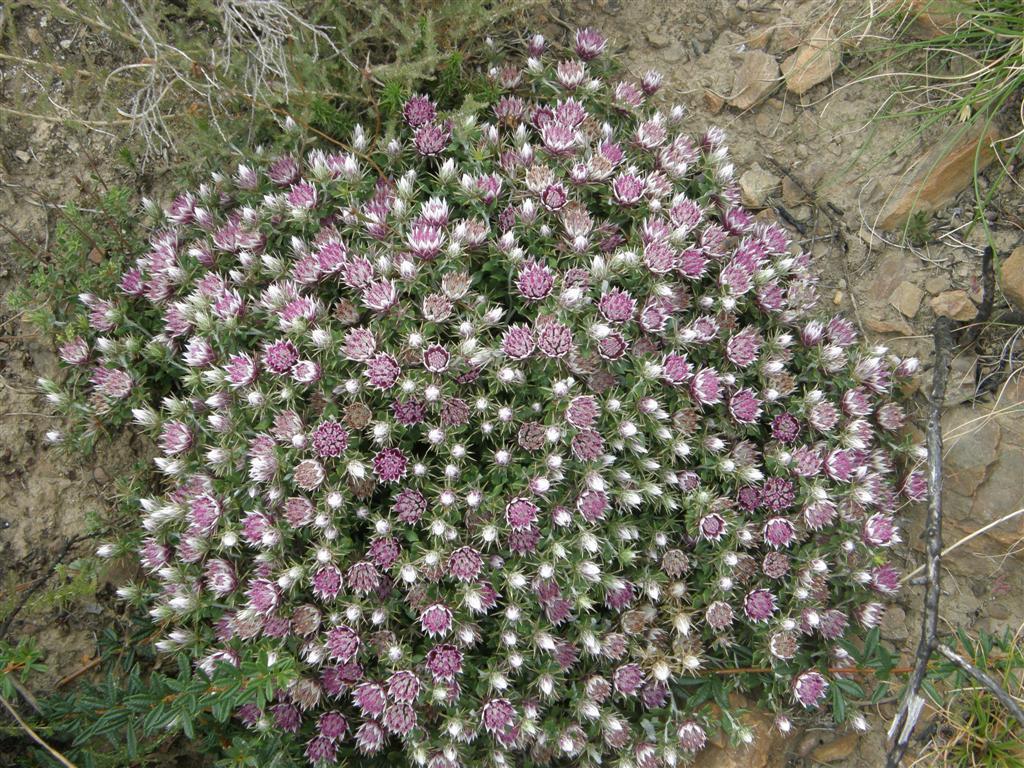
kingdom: Plantae
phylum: Tracheophyta
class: Magnoliopsida
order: Asterales
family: Asteraceae
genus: Macledium
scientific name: Macledium spinosum
